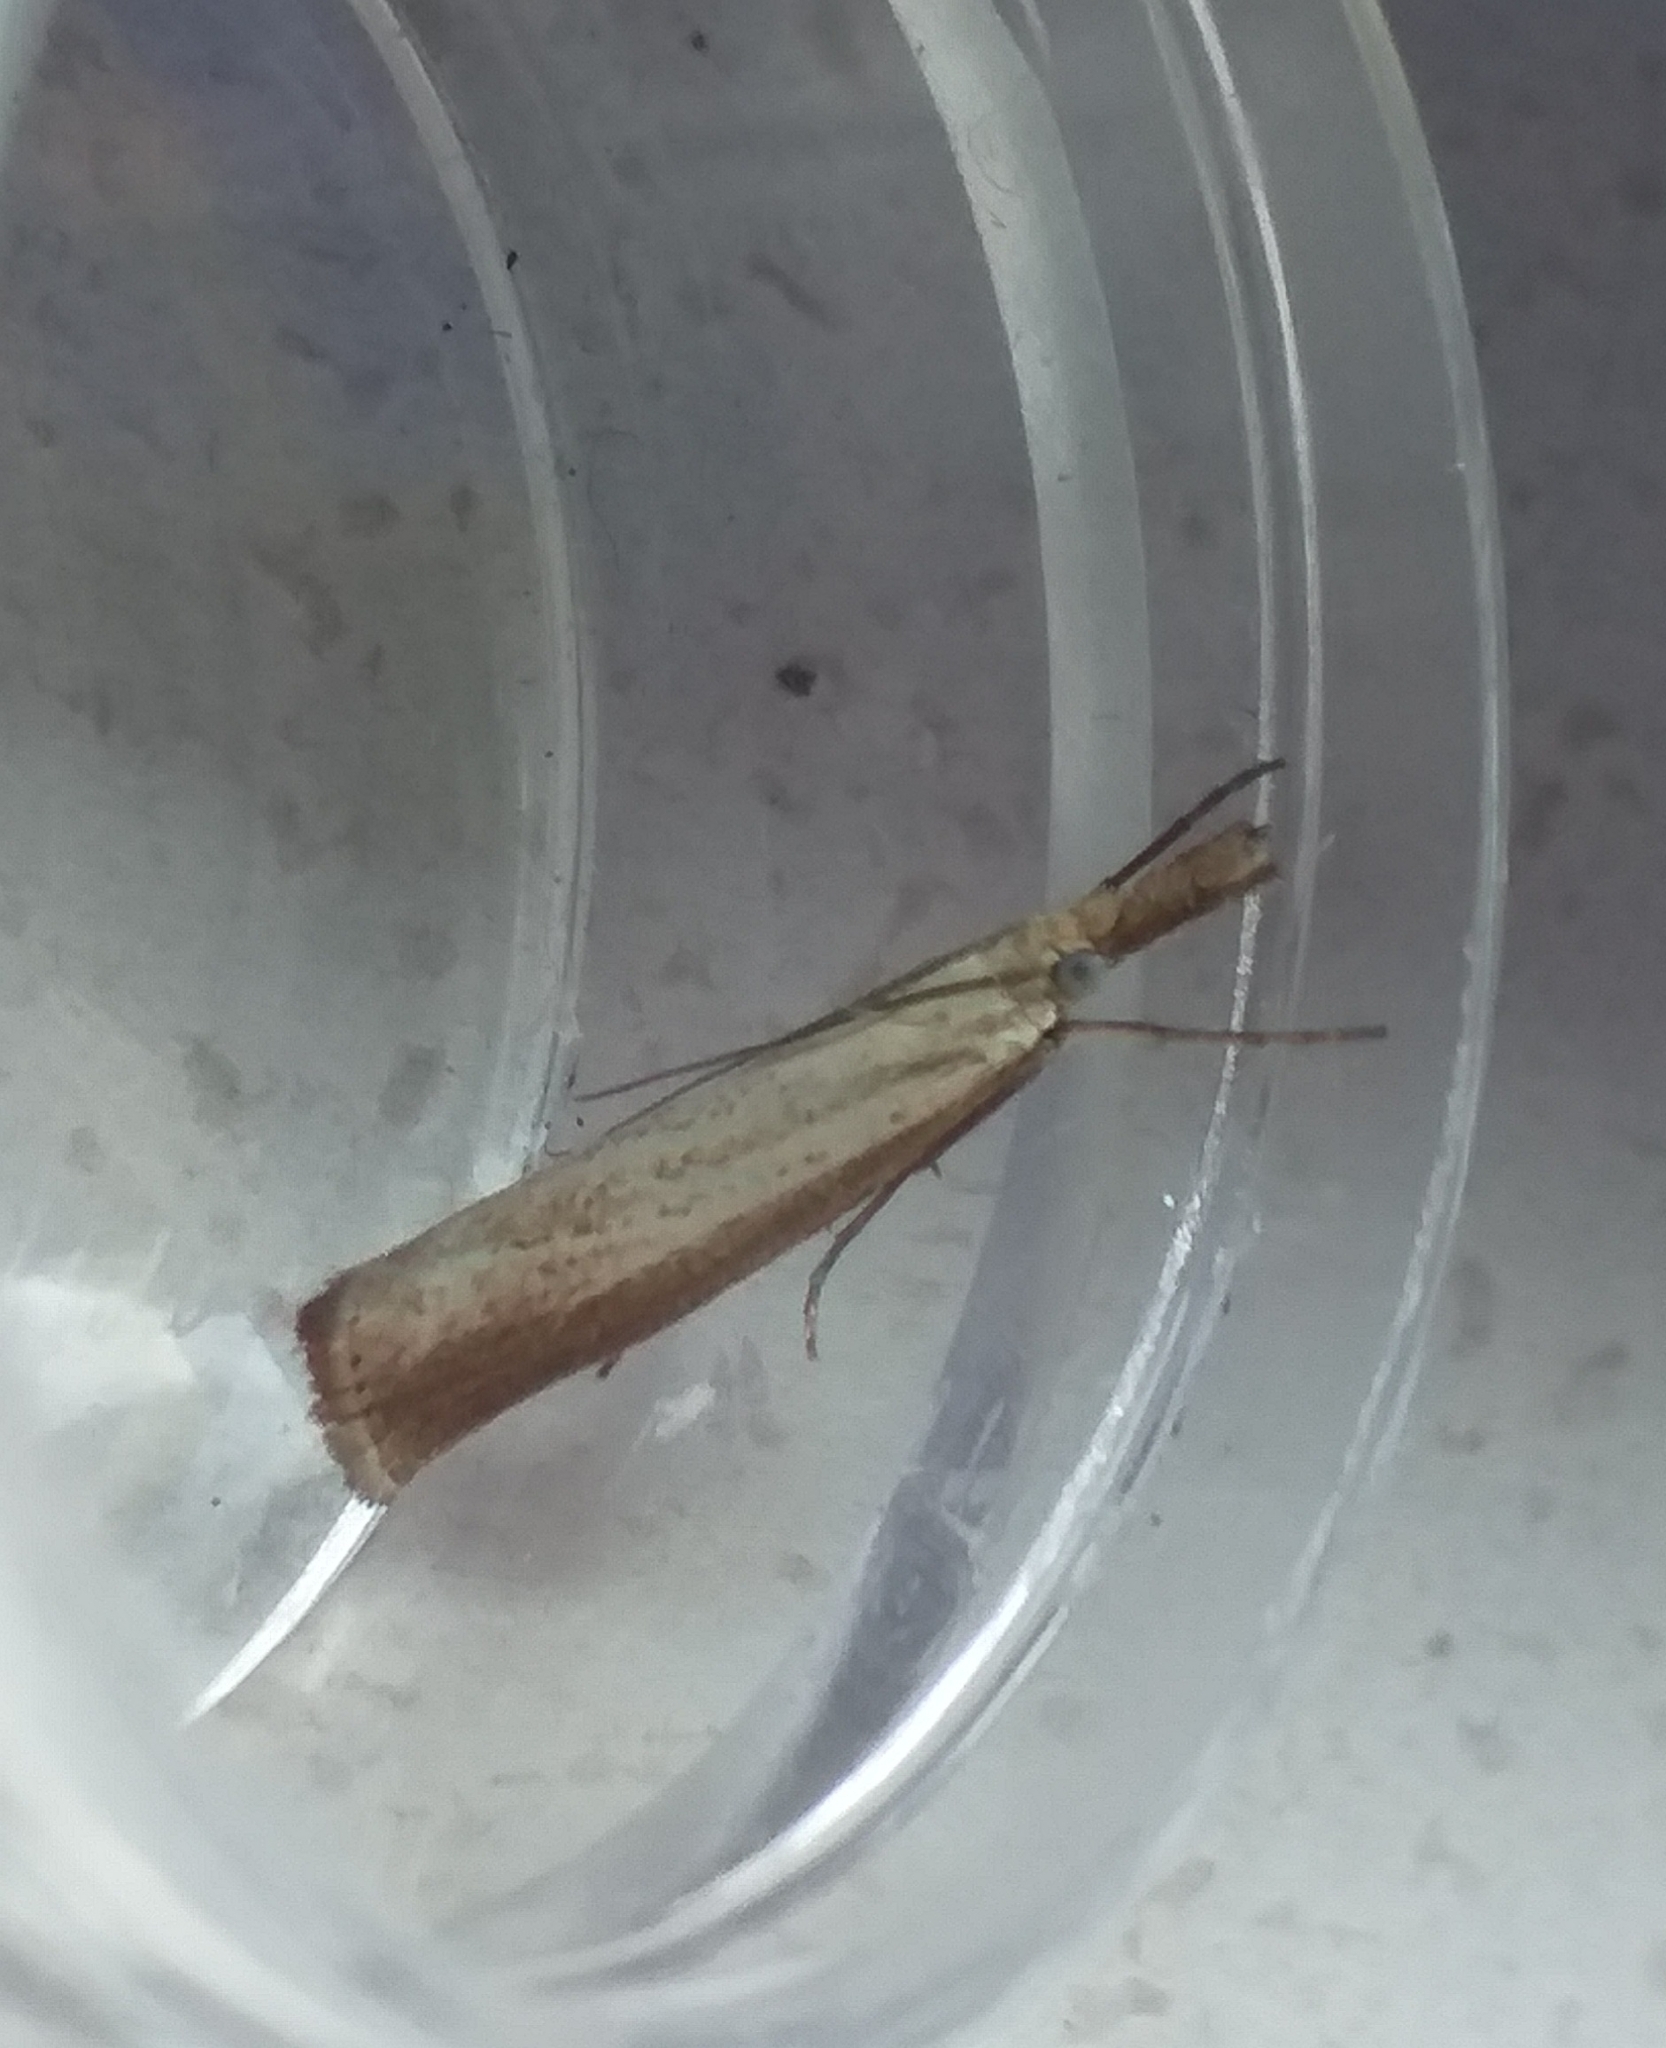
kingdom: Animalia
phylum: Arthropoda
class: Insecta
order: Lepidoptera
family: Crambidae
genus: Agriphila
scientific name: Agriphila straminella
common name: Straw grass-veneer
